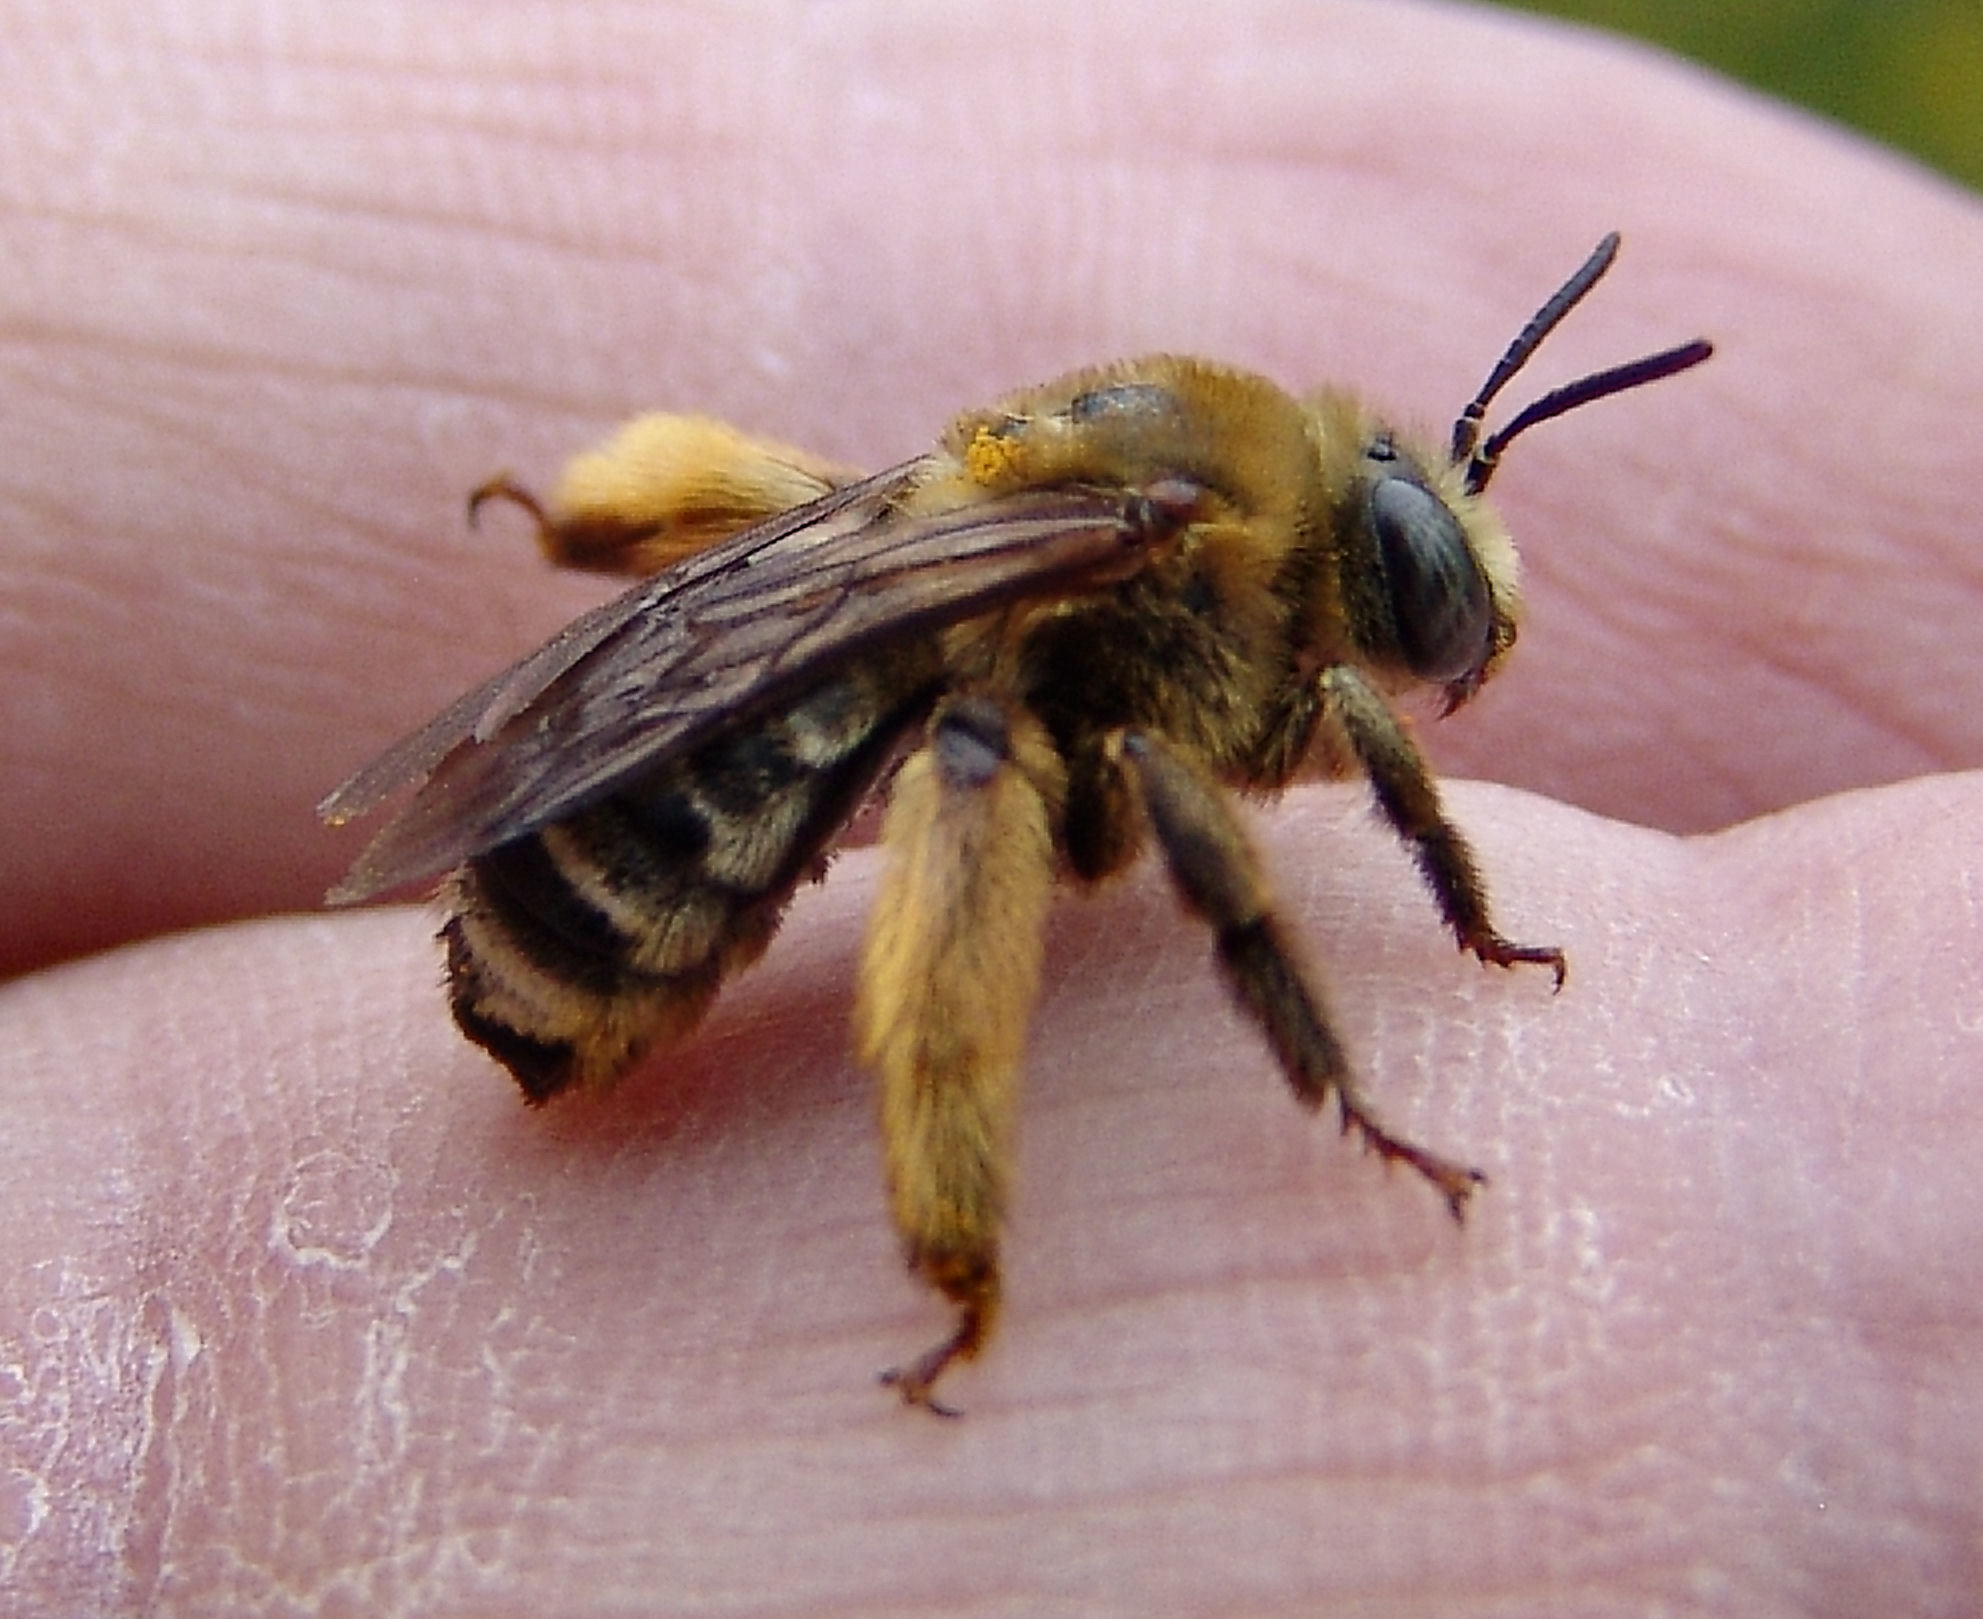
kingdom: Animalia
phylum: Arthropoda
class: Insecta
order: Hymenoptera
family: Apidae
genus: Melissodes
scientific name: Melissodes comptoides
